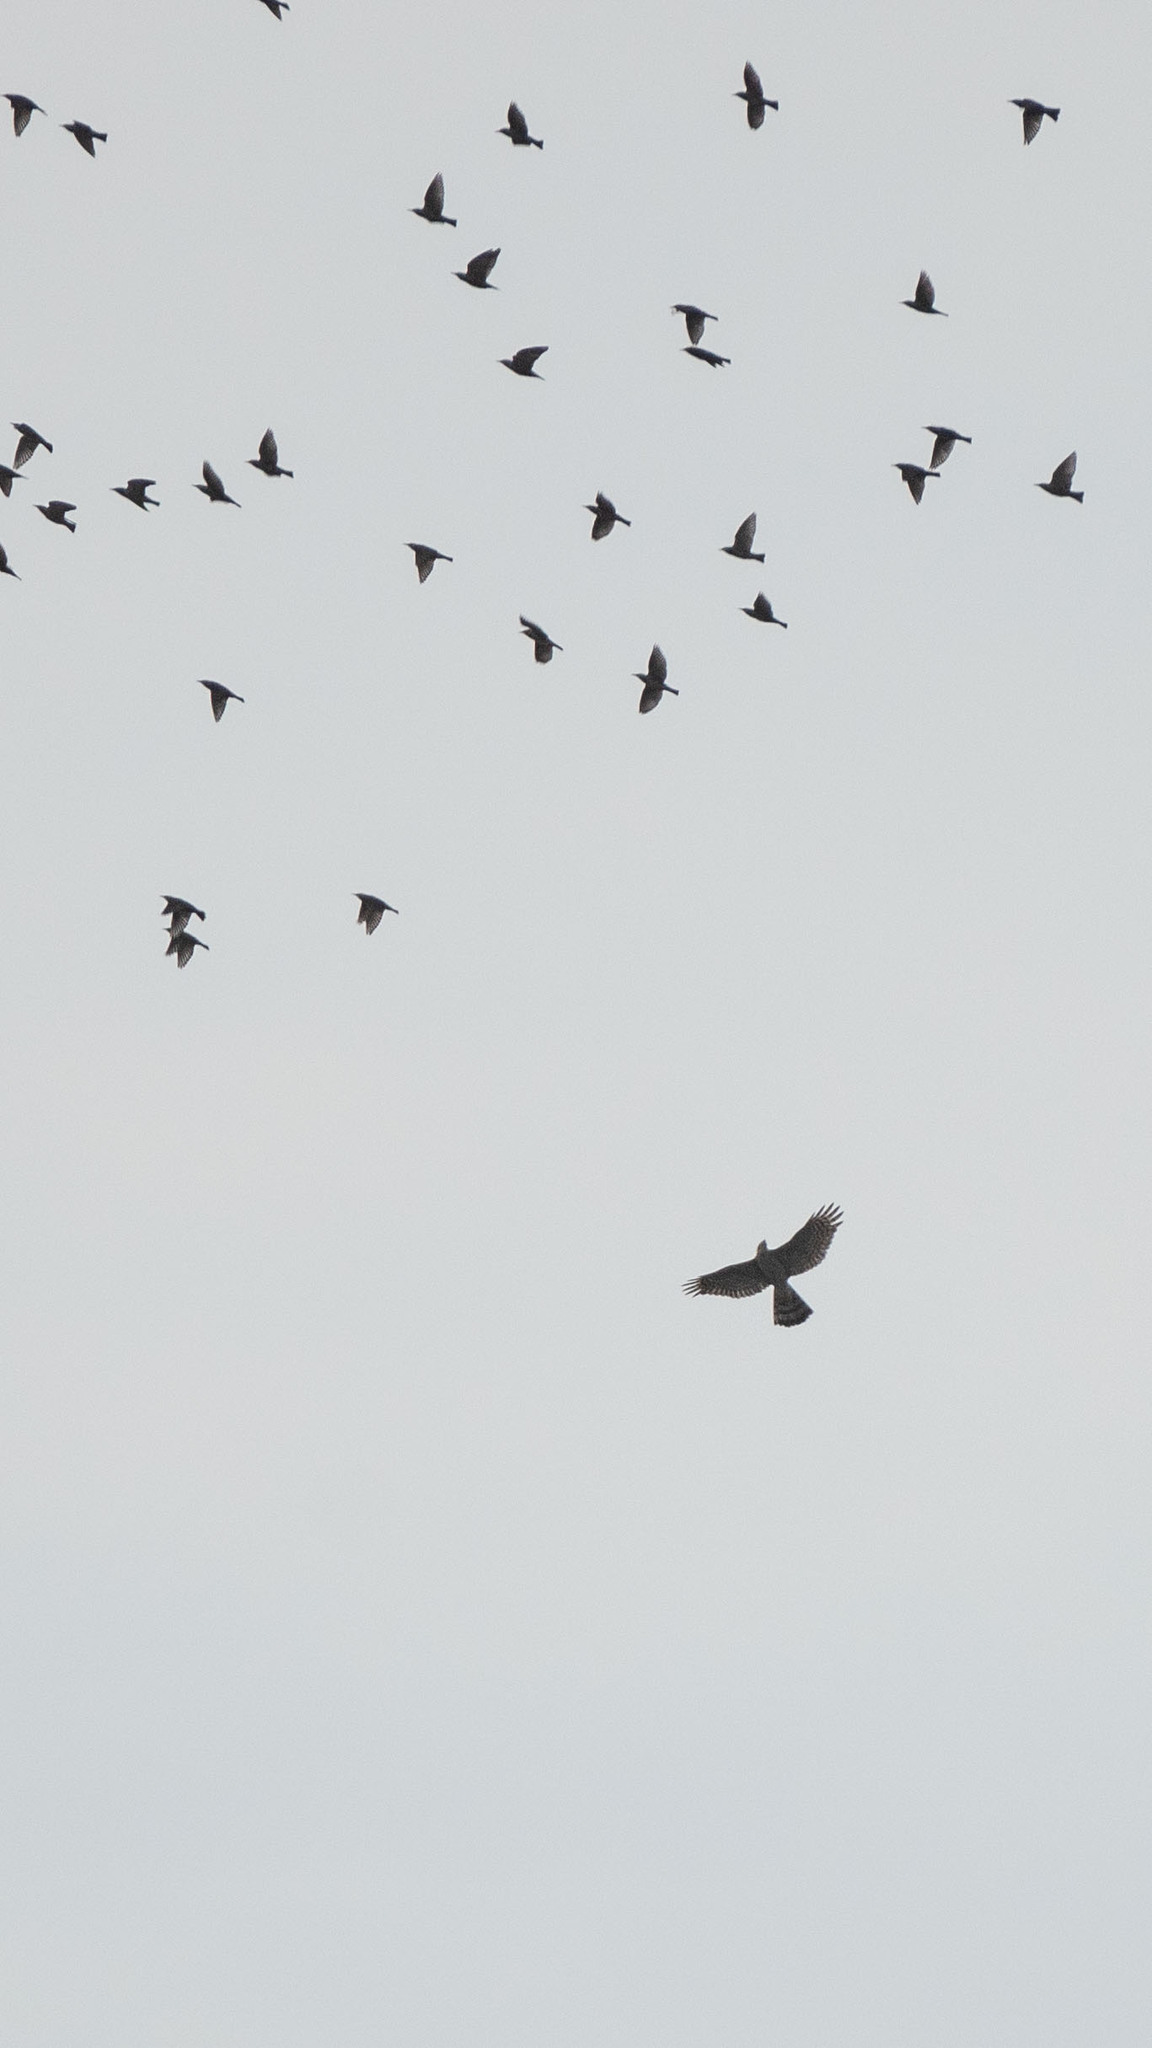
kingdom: Animalia
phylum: Chordata
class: Aves
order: Accipitriformes
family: Accipitridae
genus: Accipiter
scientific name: Accipiter nisus
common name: Eurasian sparrowhawk
